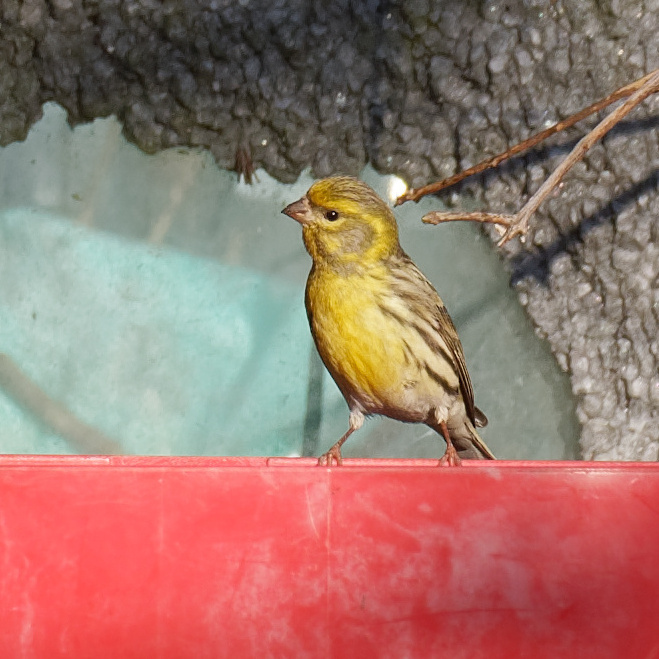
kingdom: Animalia
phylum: Chordata
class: Aves
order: Passeriformes
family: Fringillidae
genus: Serinus
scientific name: Serinus serinus
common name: European serin
